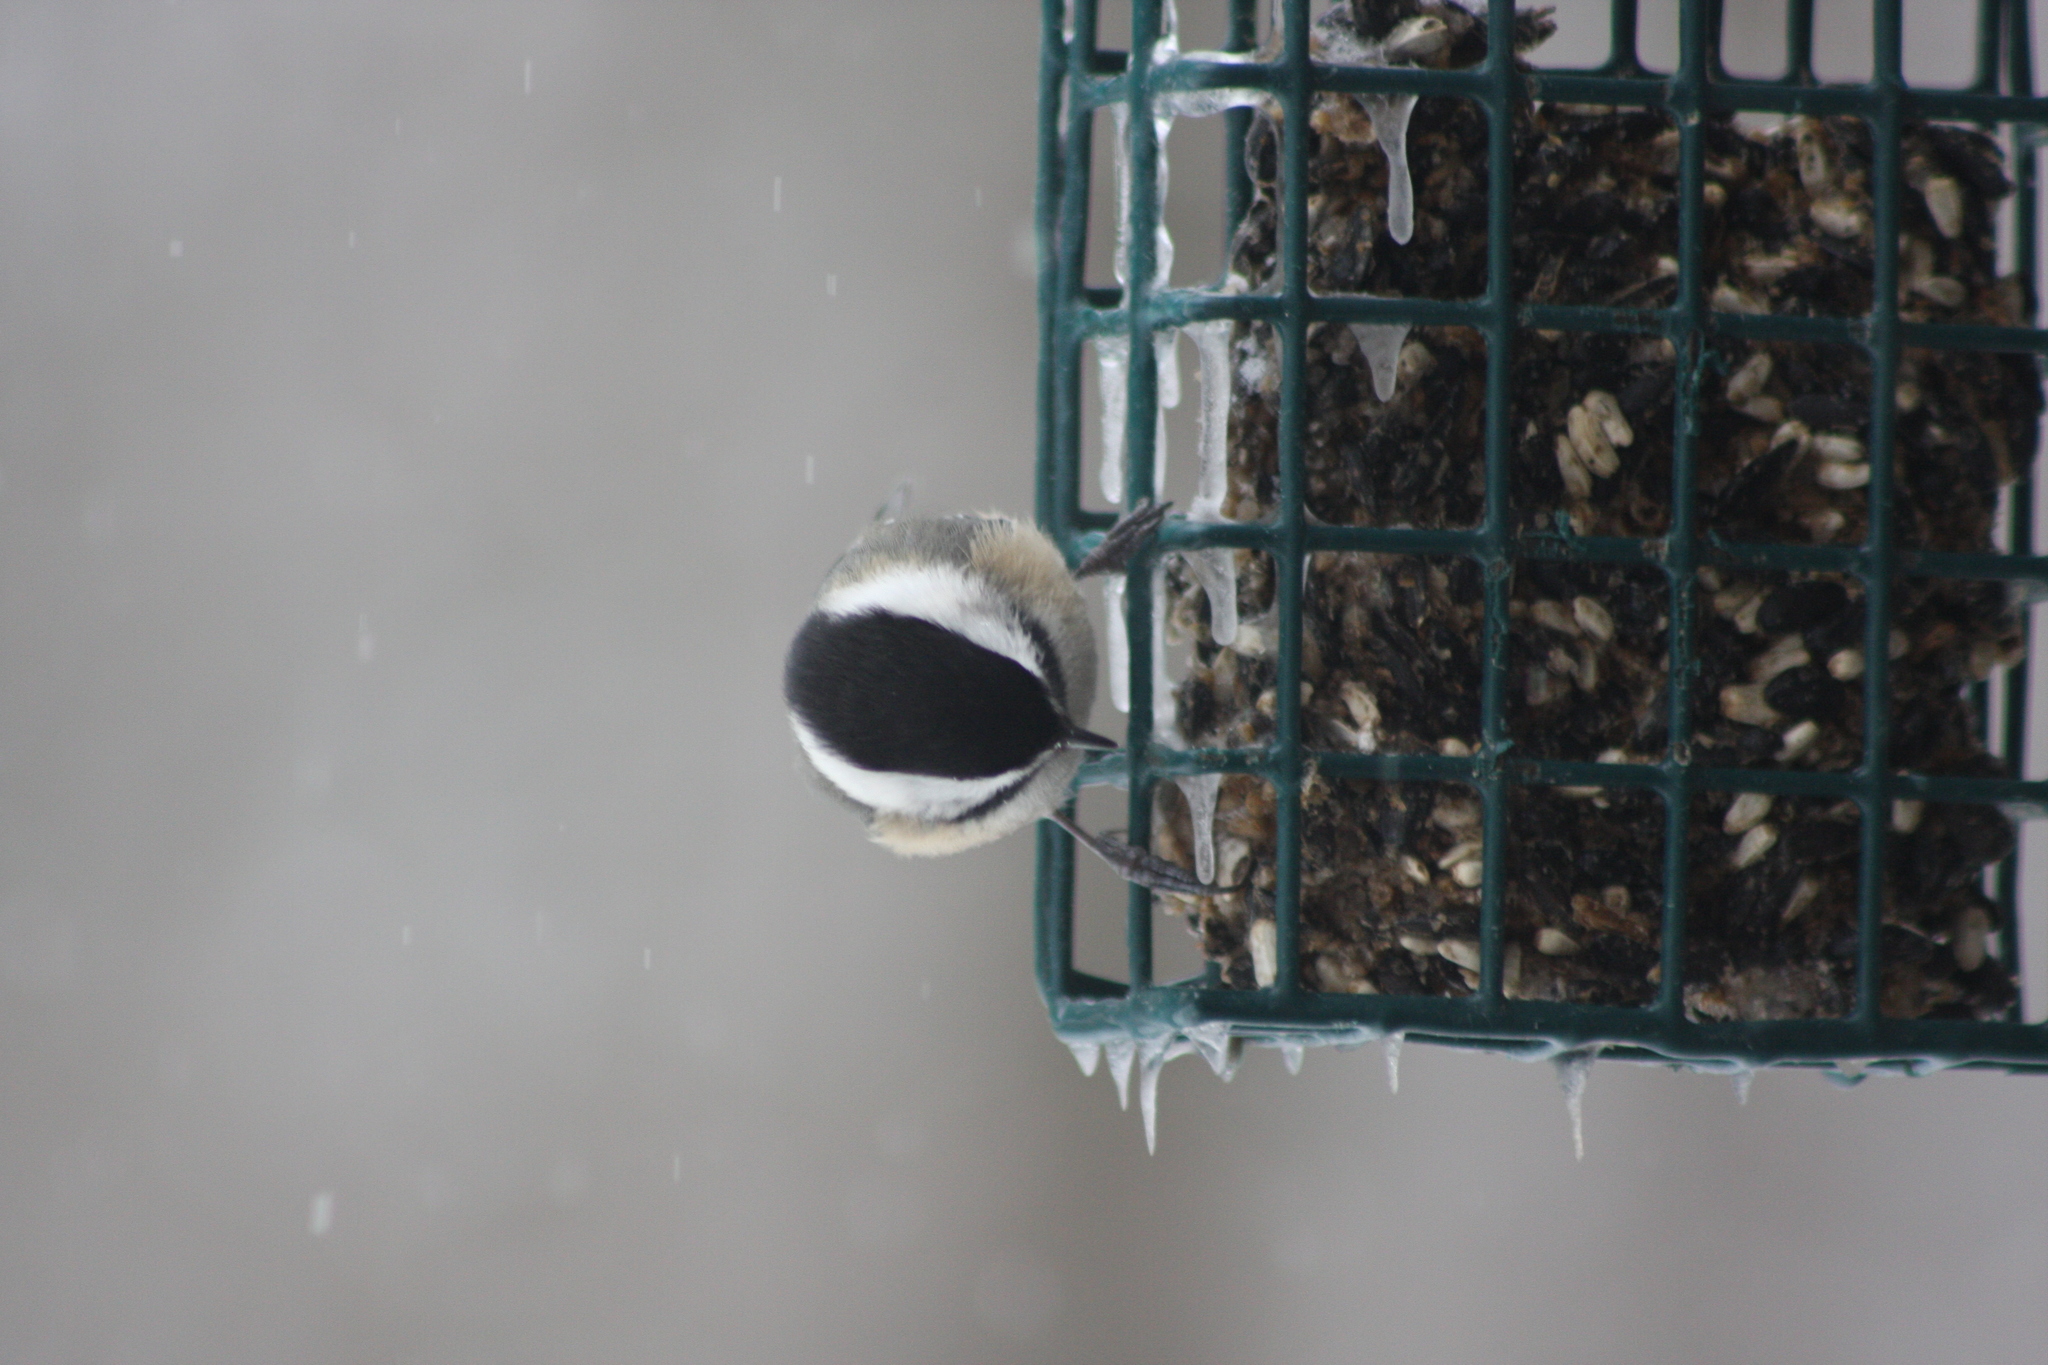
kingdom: Animalia
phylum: Chordata
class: Aves
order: Passeriformes
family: Paridae
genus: Poecile
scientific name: Poecile atricapillus
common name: Black-capped chickadee
